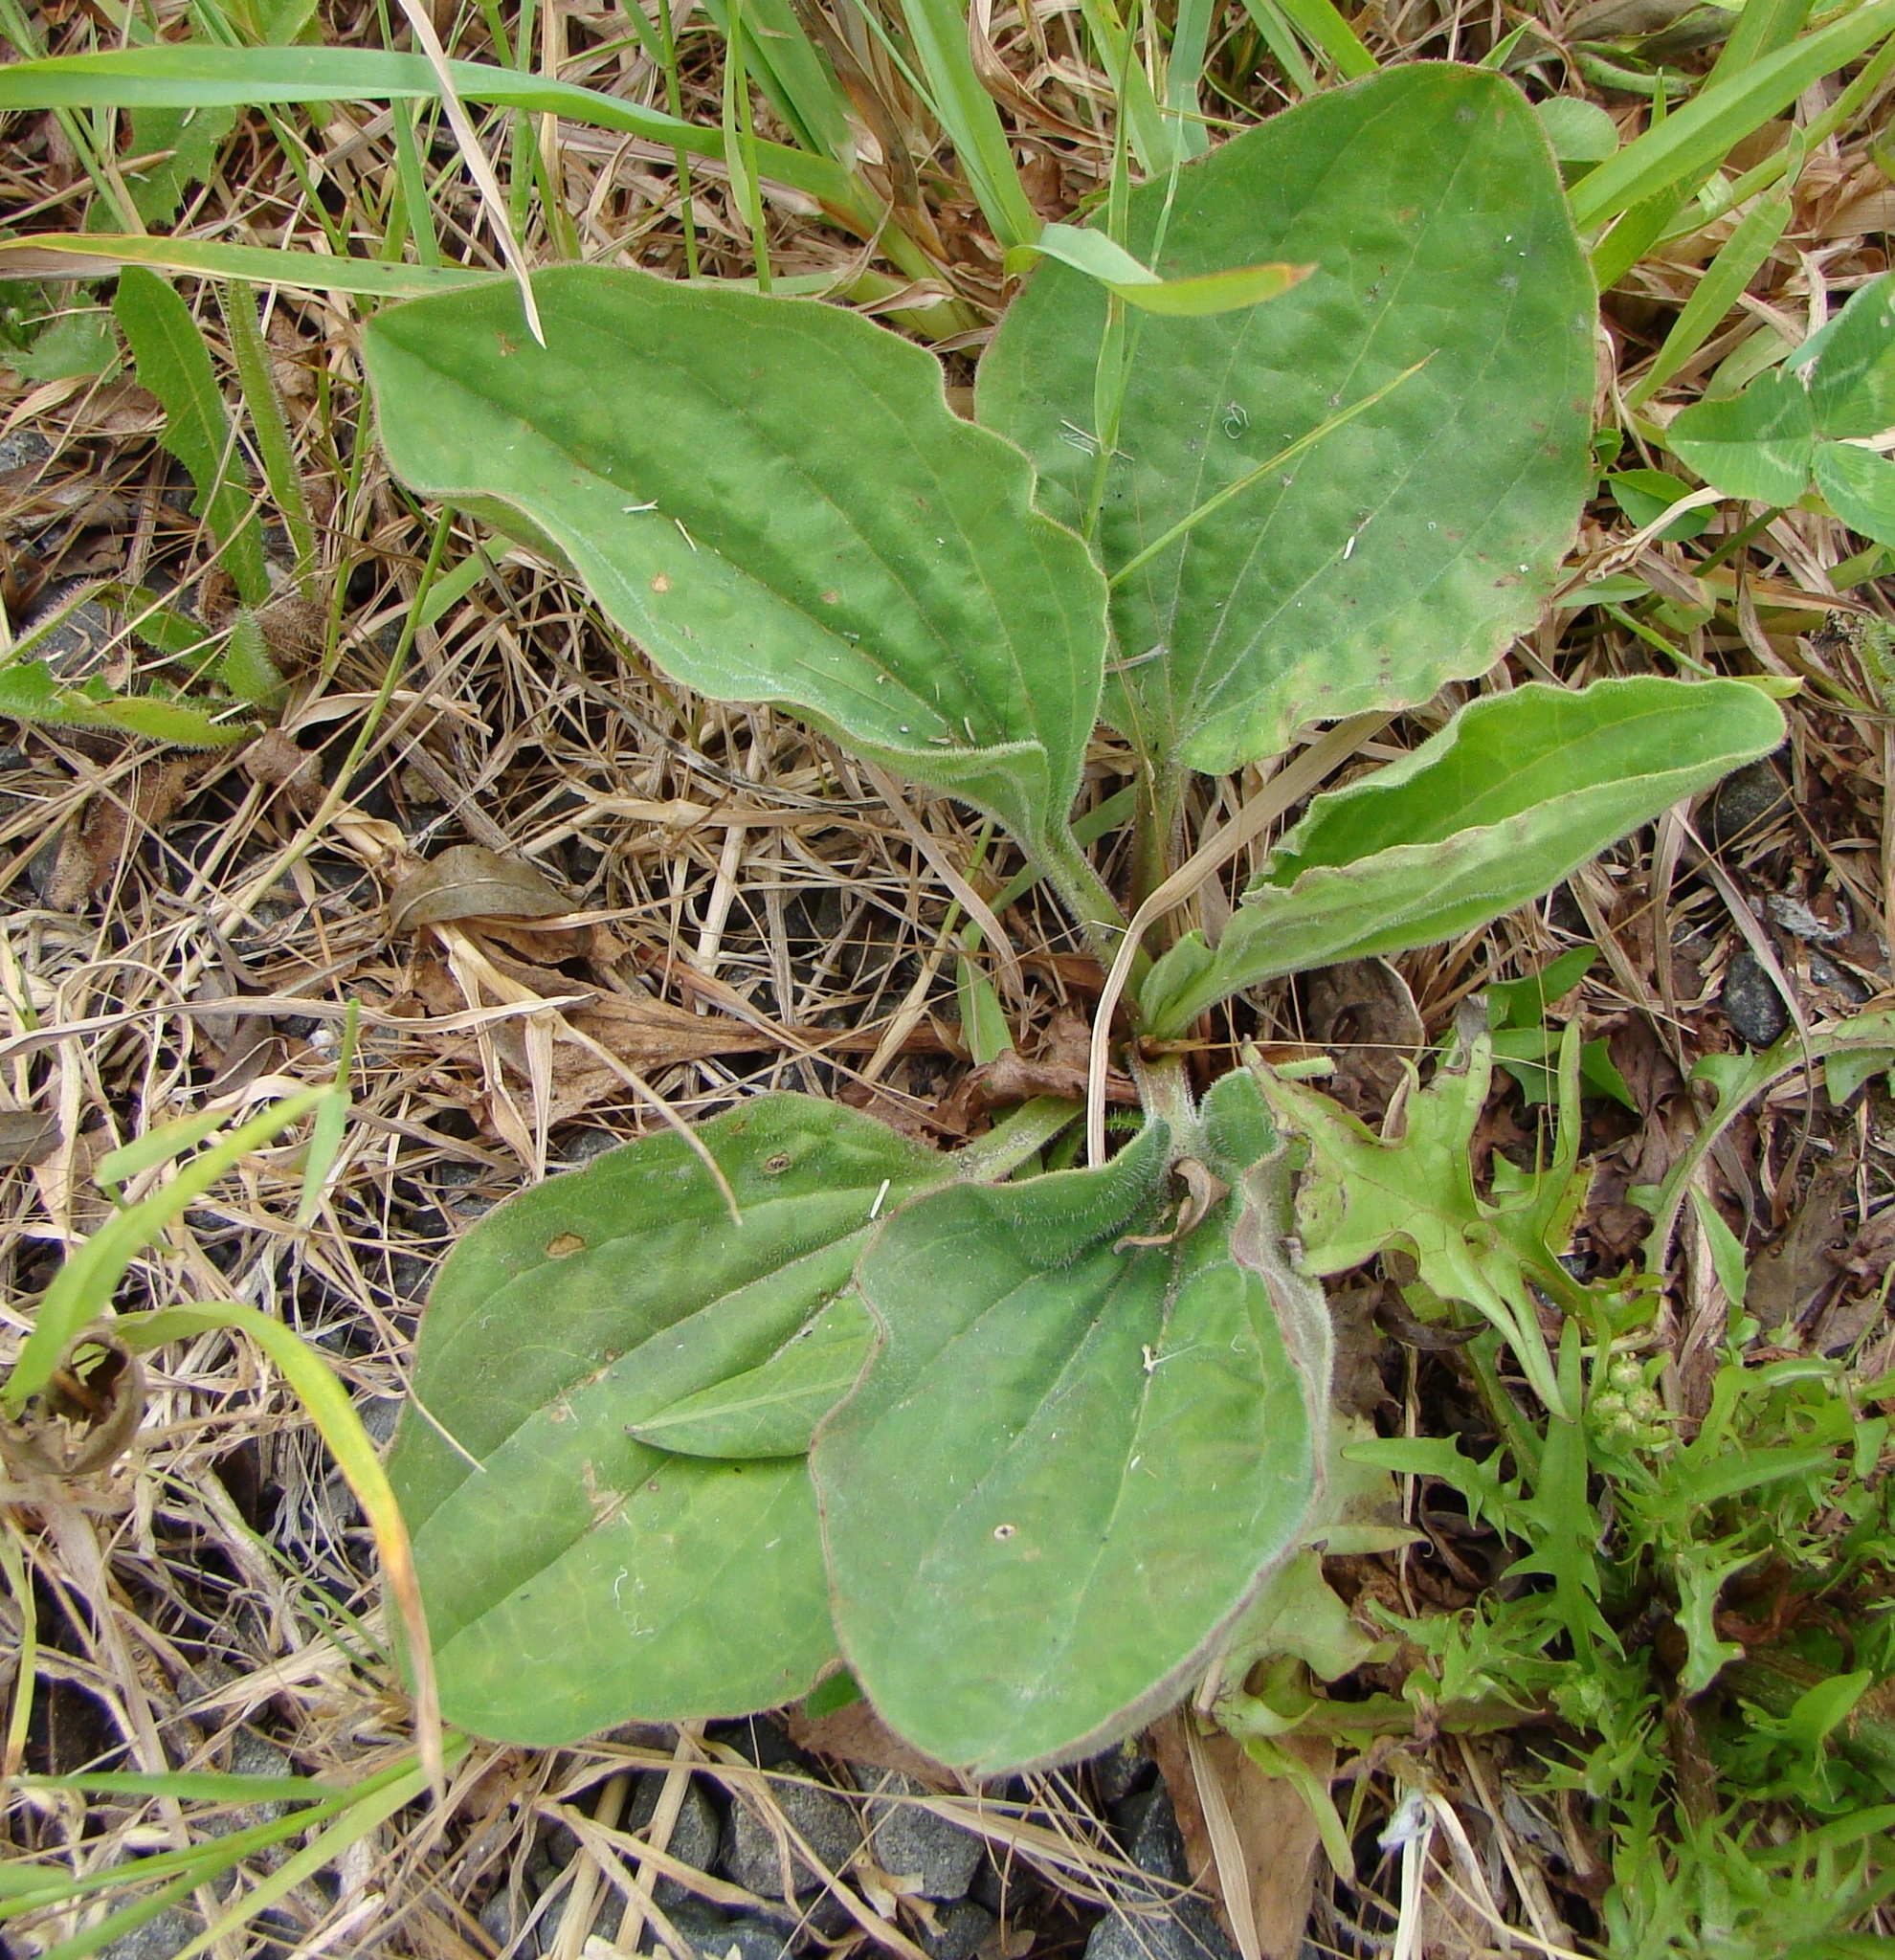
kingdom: Plantae
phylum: Tracheophyta
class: Magnoliopsida
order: Lamiales
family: Plantaginaceae
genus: Plantago
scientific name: Plantago major
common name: Common plantain
